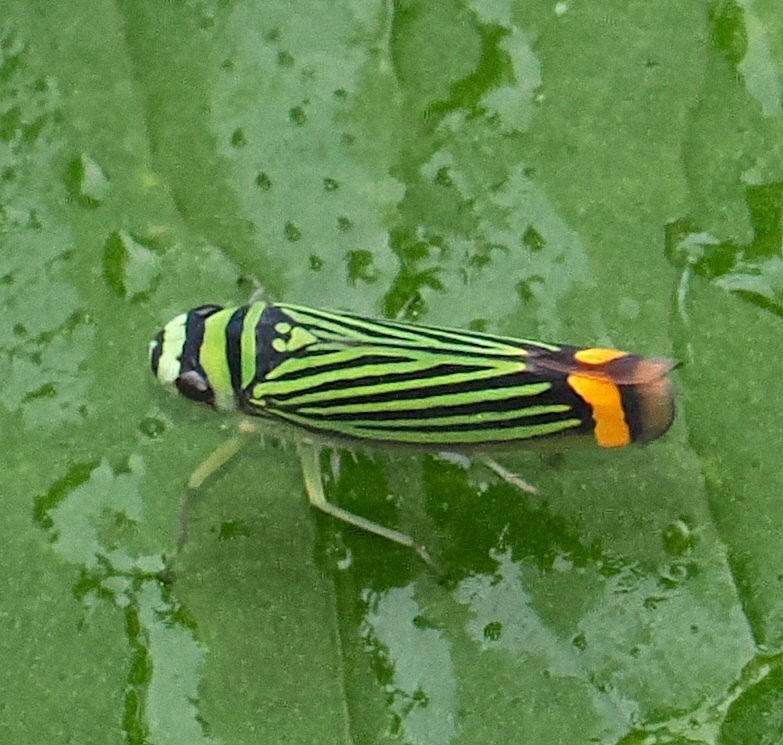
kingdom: Animalia
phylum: Arthropoda
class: Insecta
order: Hemiptera
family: Cicadellidae
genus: Subrasaca
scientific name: Subrasaca flavolineata
